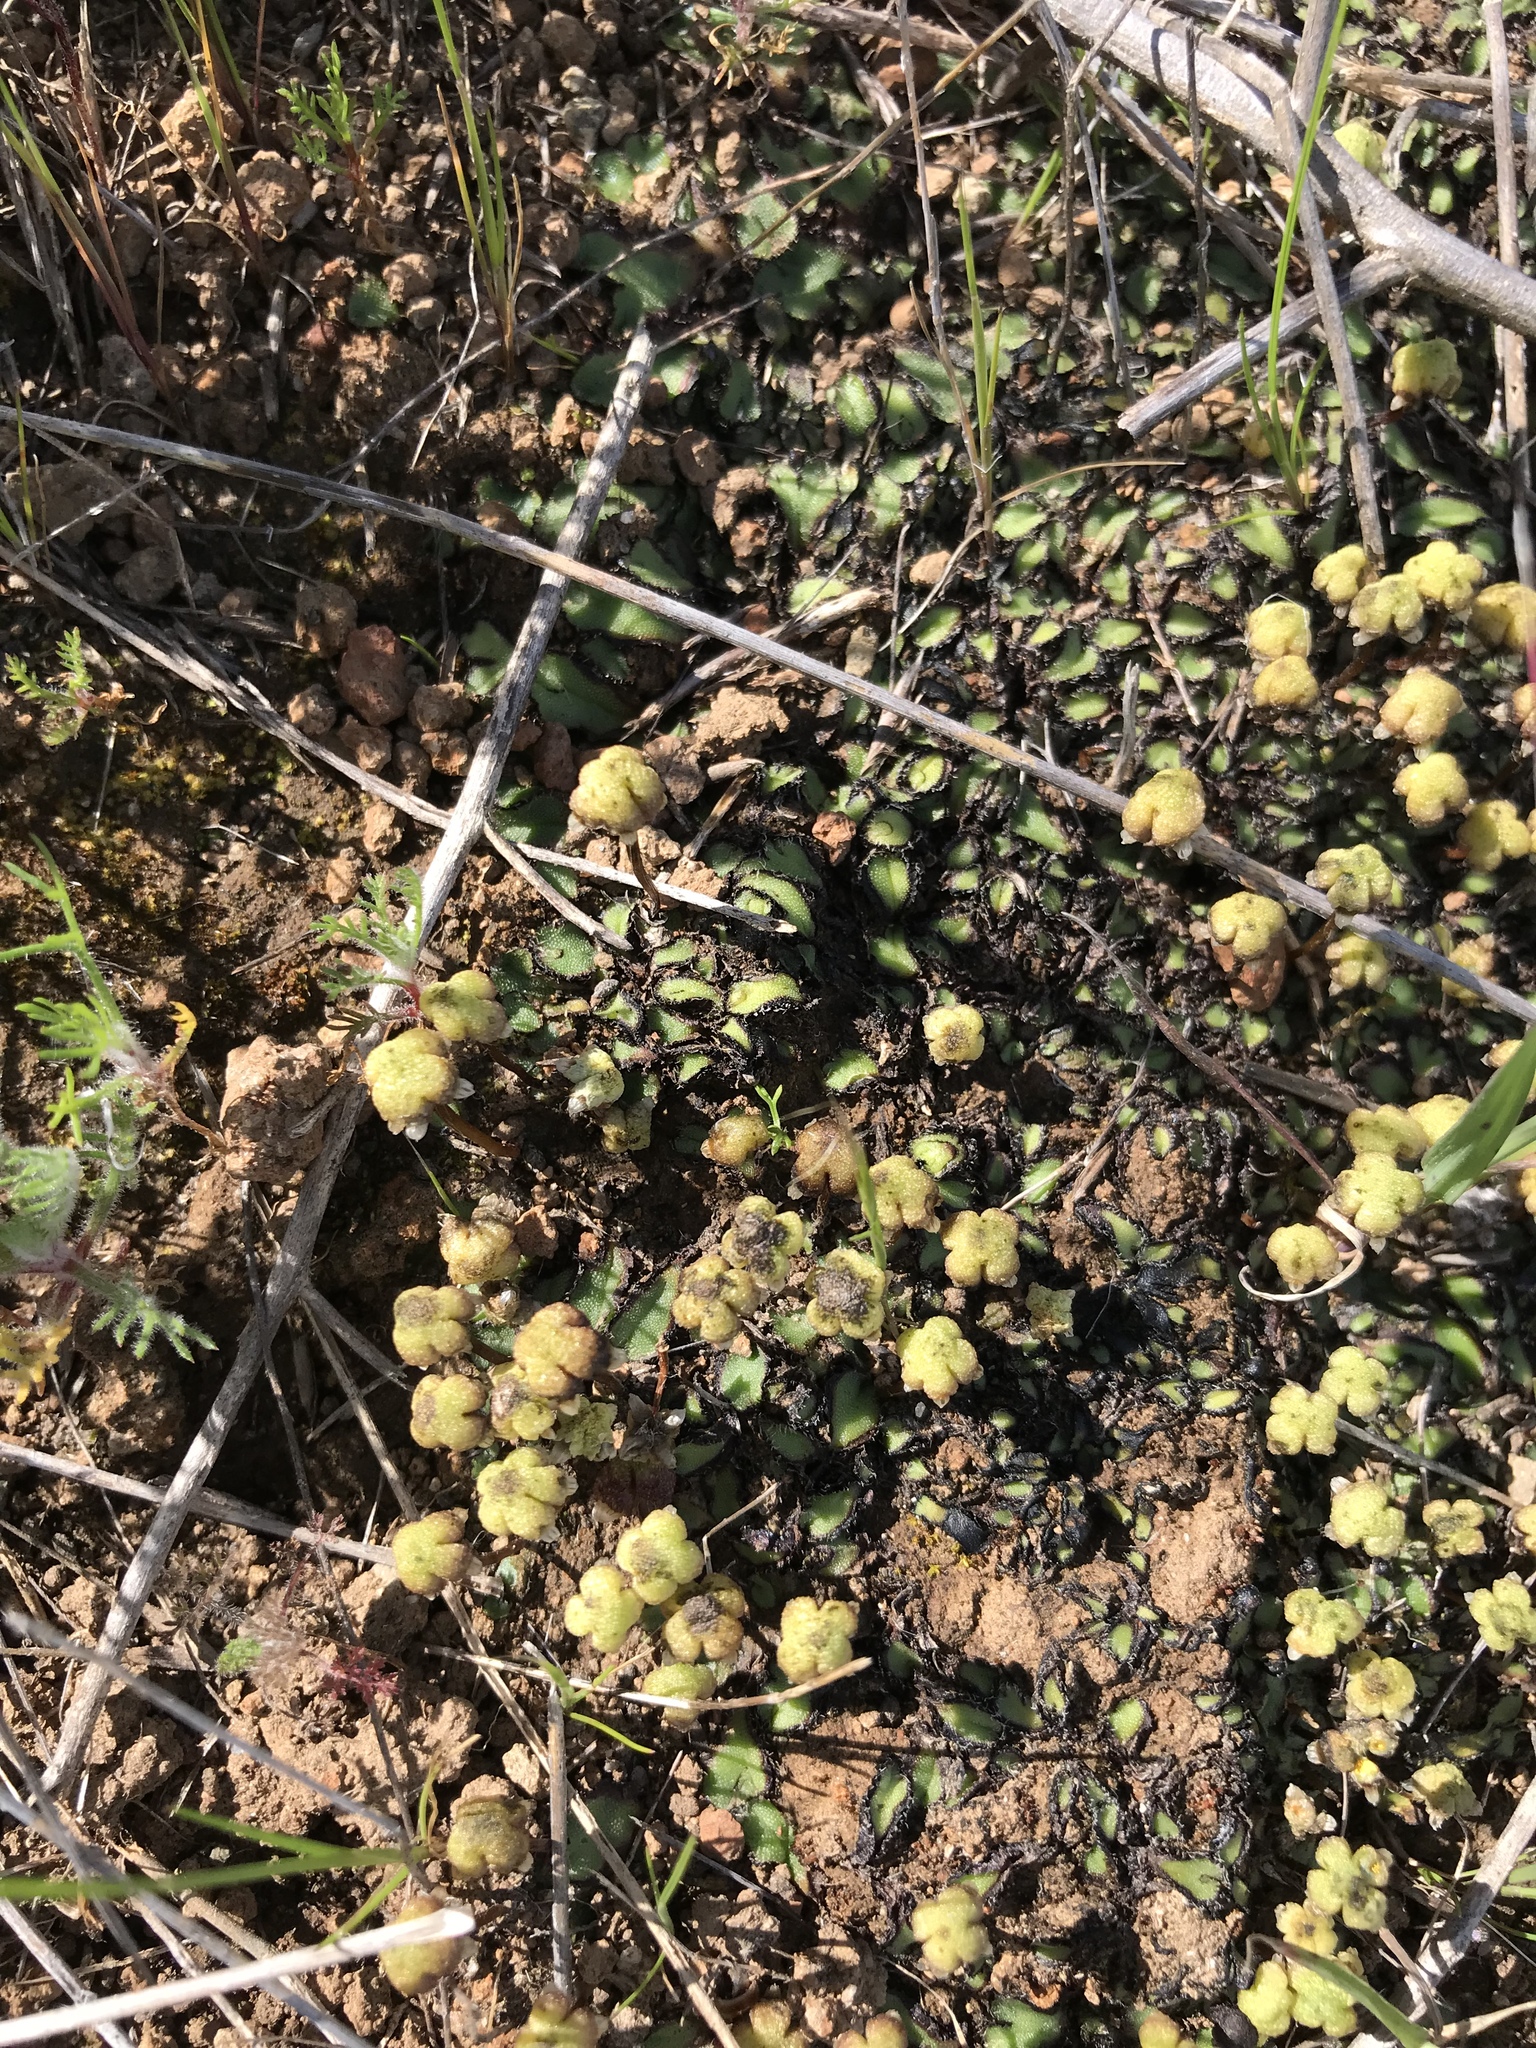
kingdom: Plantae
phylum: Marchantiophyta
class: Marchantiopsida
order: Marchantiales
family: Aytoniaceae
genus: Asterella
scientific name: Asterella californica
